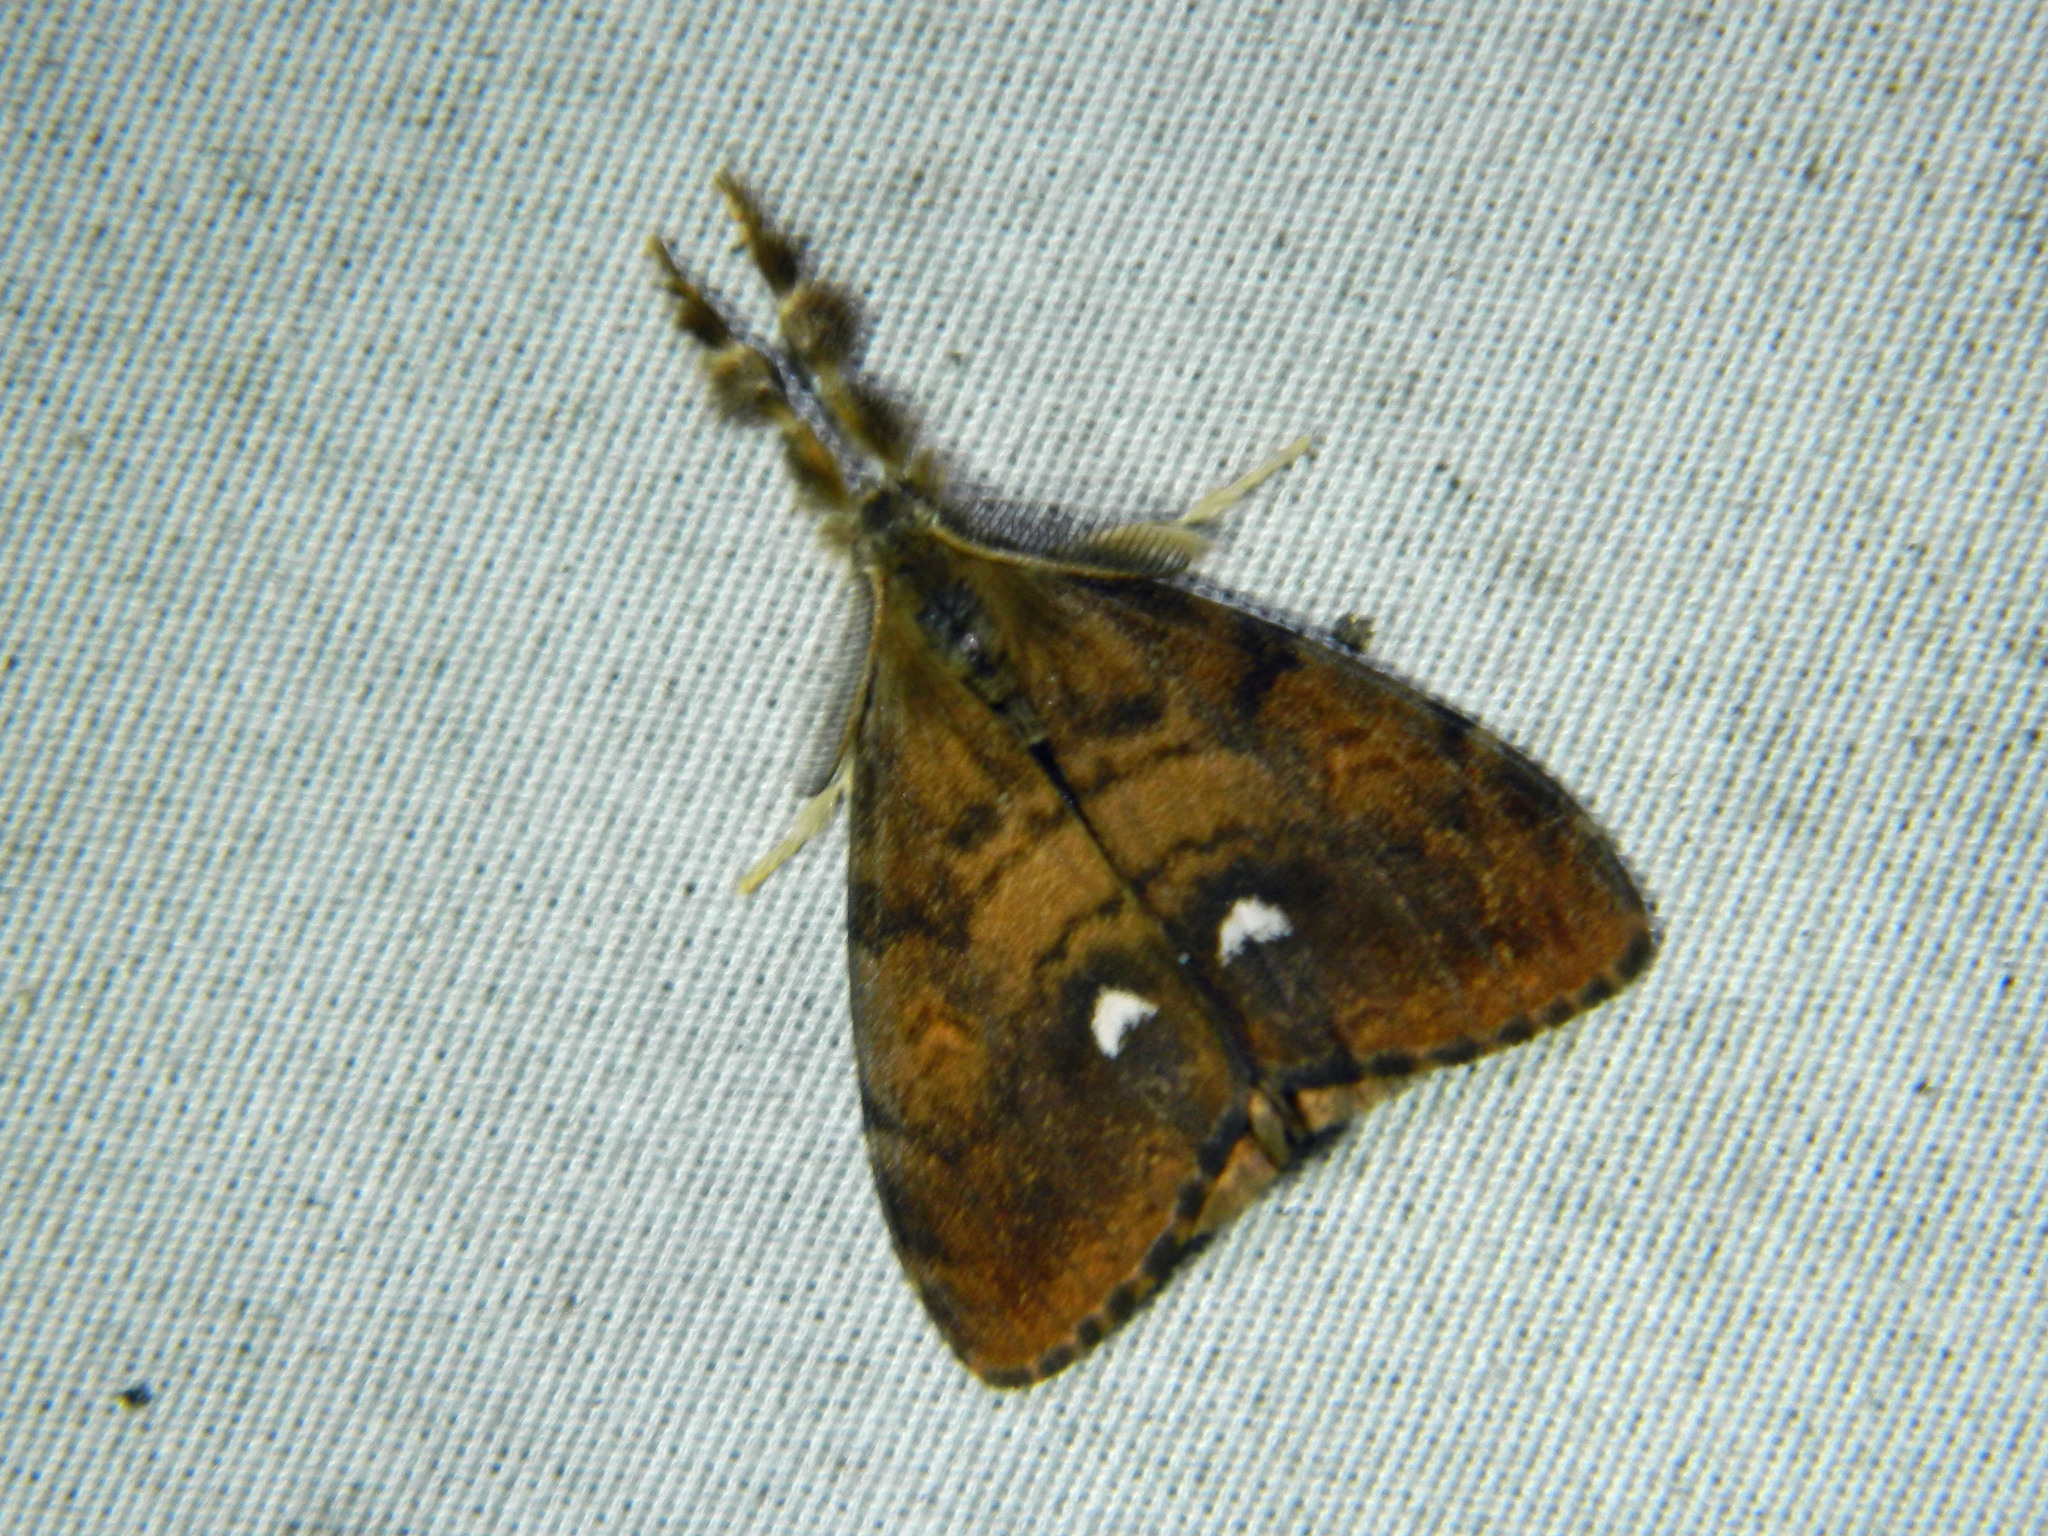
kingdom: Animalia
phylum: Arthropoda
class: Insecta
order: Lepidoptera
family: Erebidae
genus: Orgyia
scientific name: Orgyia antiqua
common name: Vapourer
